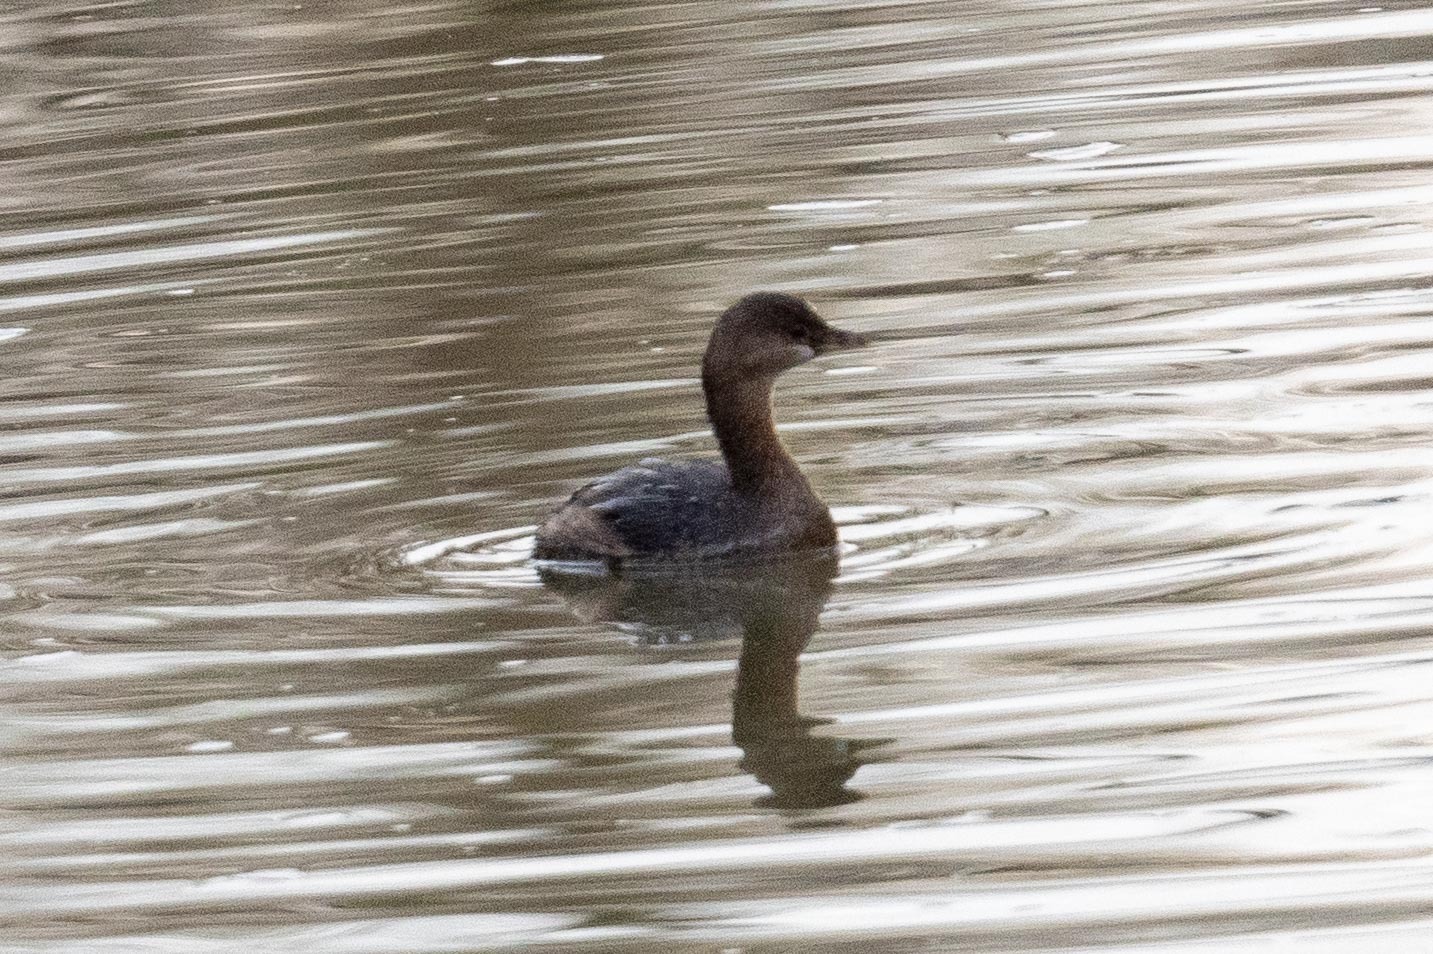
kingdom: Animalia
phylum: Chordata
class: Aves
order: Podicipediformes
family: Podicipedidae
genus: Podilymbus
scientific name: Podilymbus podiceps
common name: Pied-billed grebe
